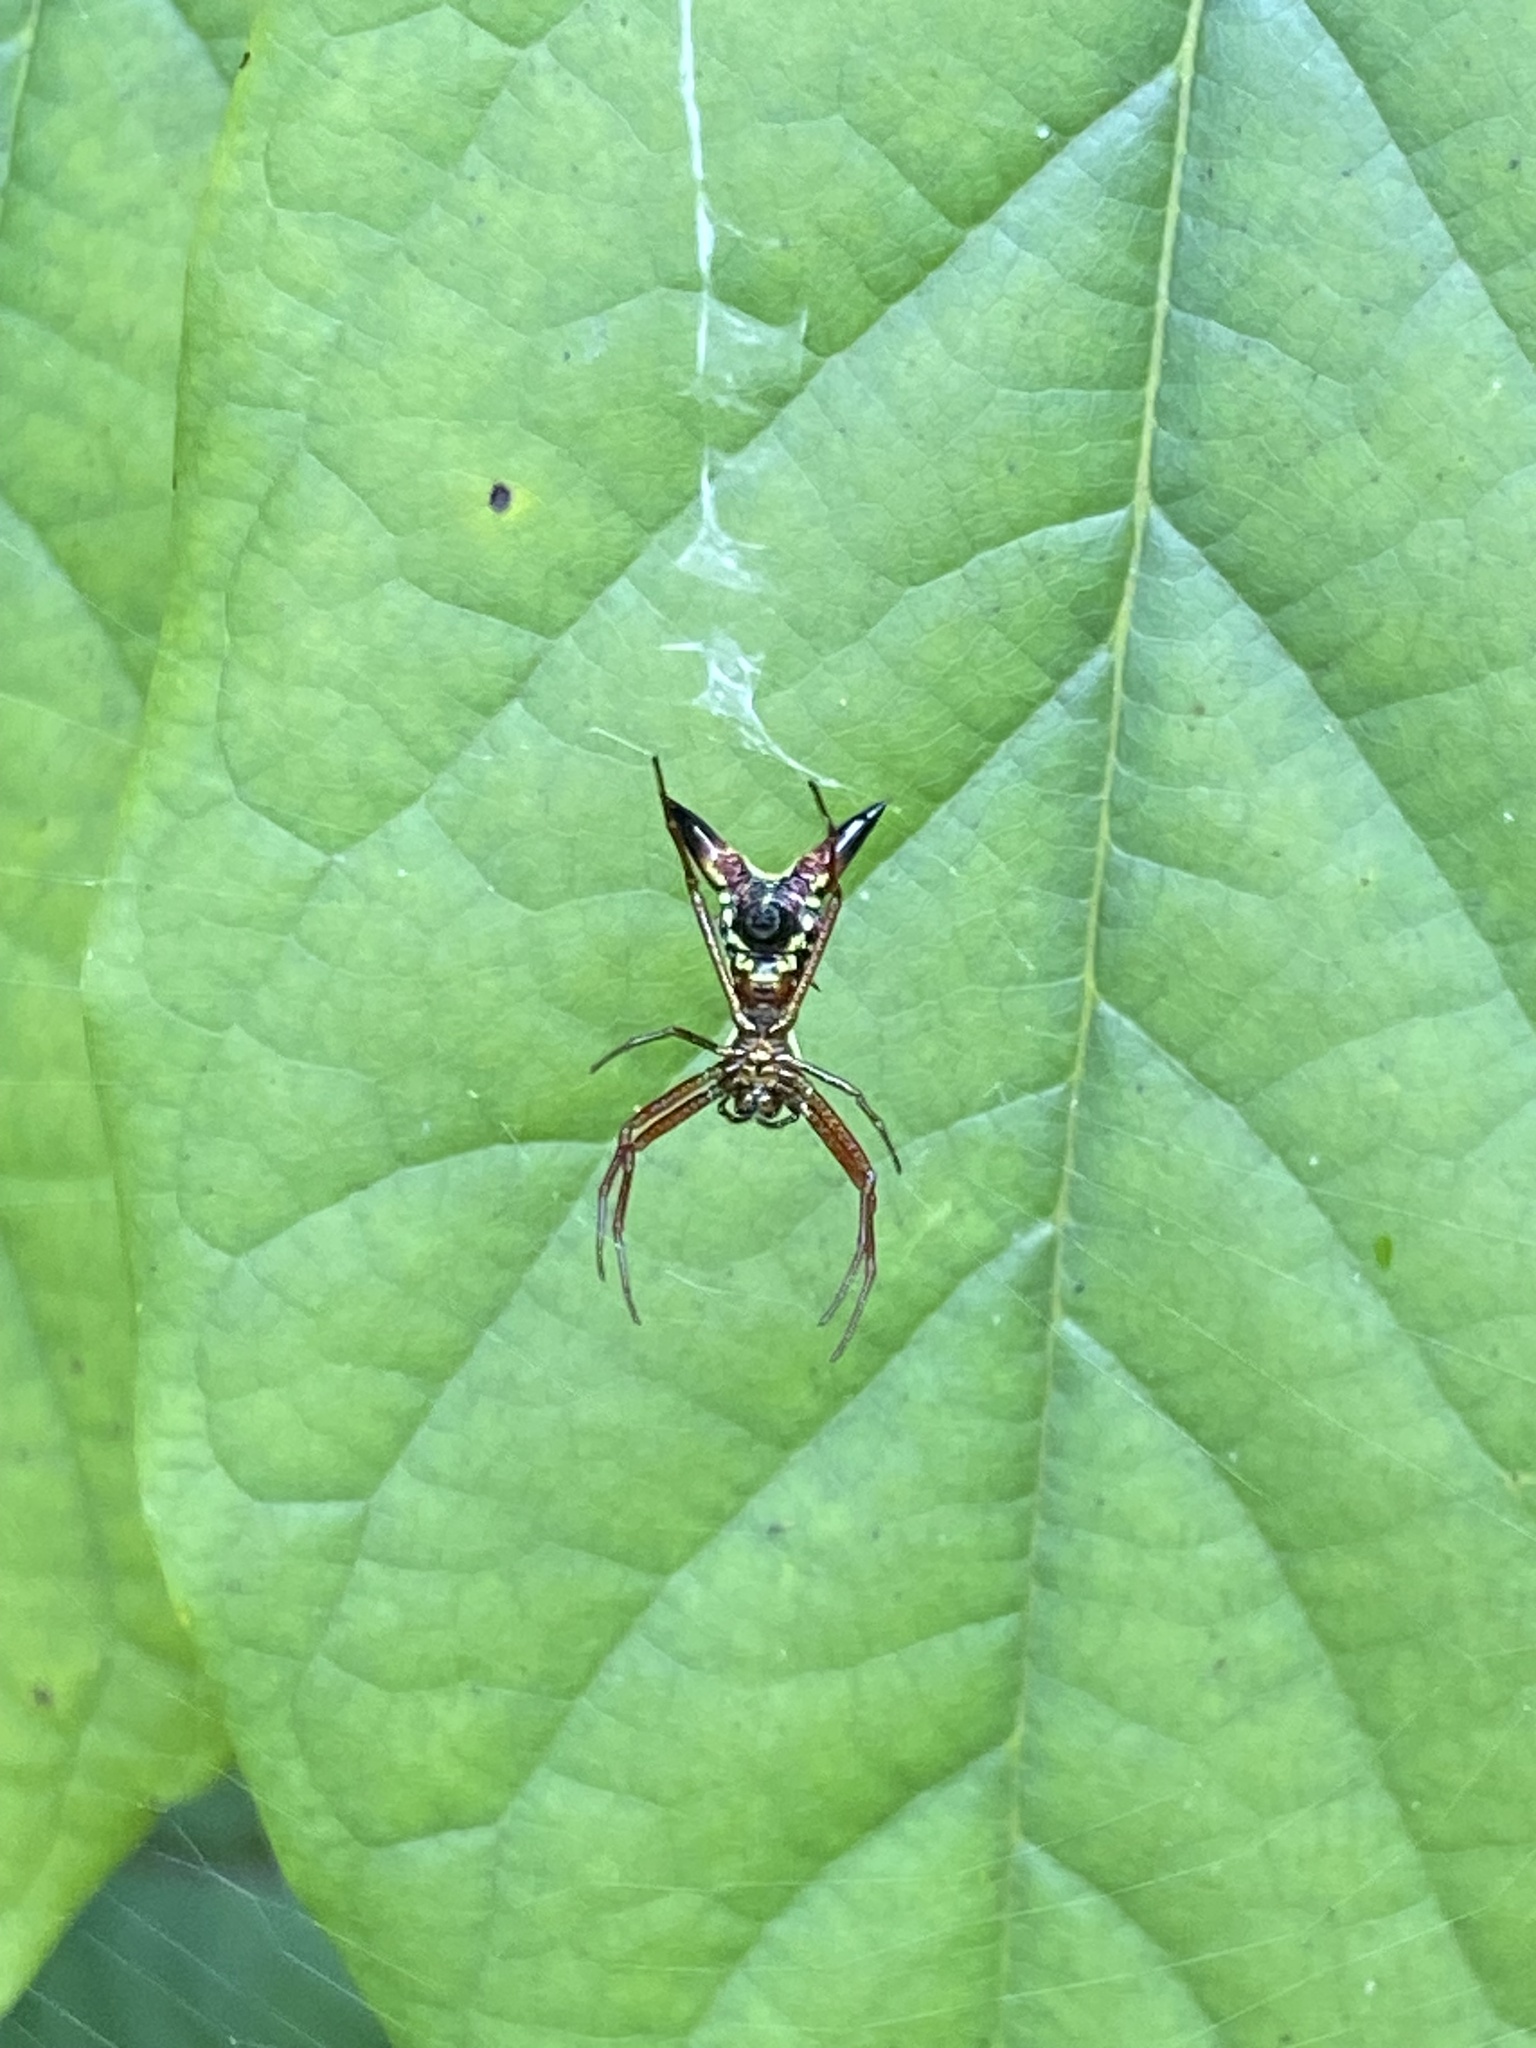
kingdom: Animalia
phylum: Arthropoda
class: Arachnida
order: Araneae
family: Araneidae
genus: Micrathena
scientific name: Micrathena sagittata
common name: Orb weavers
